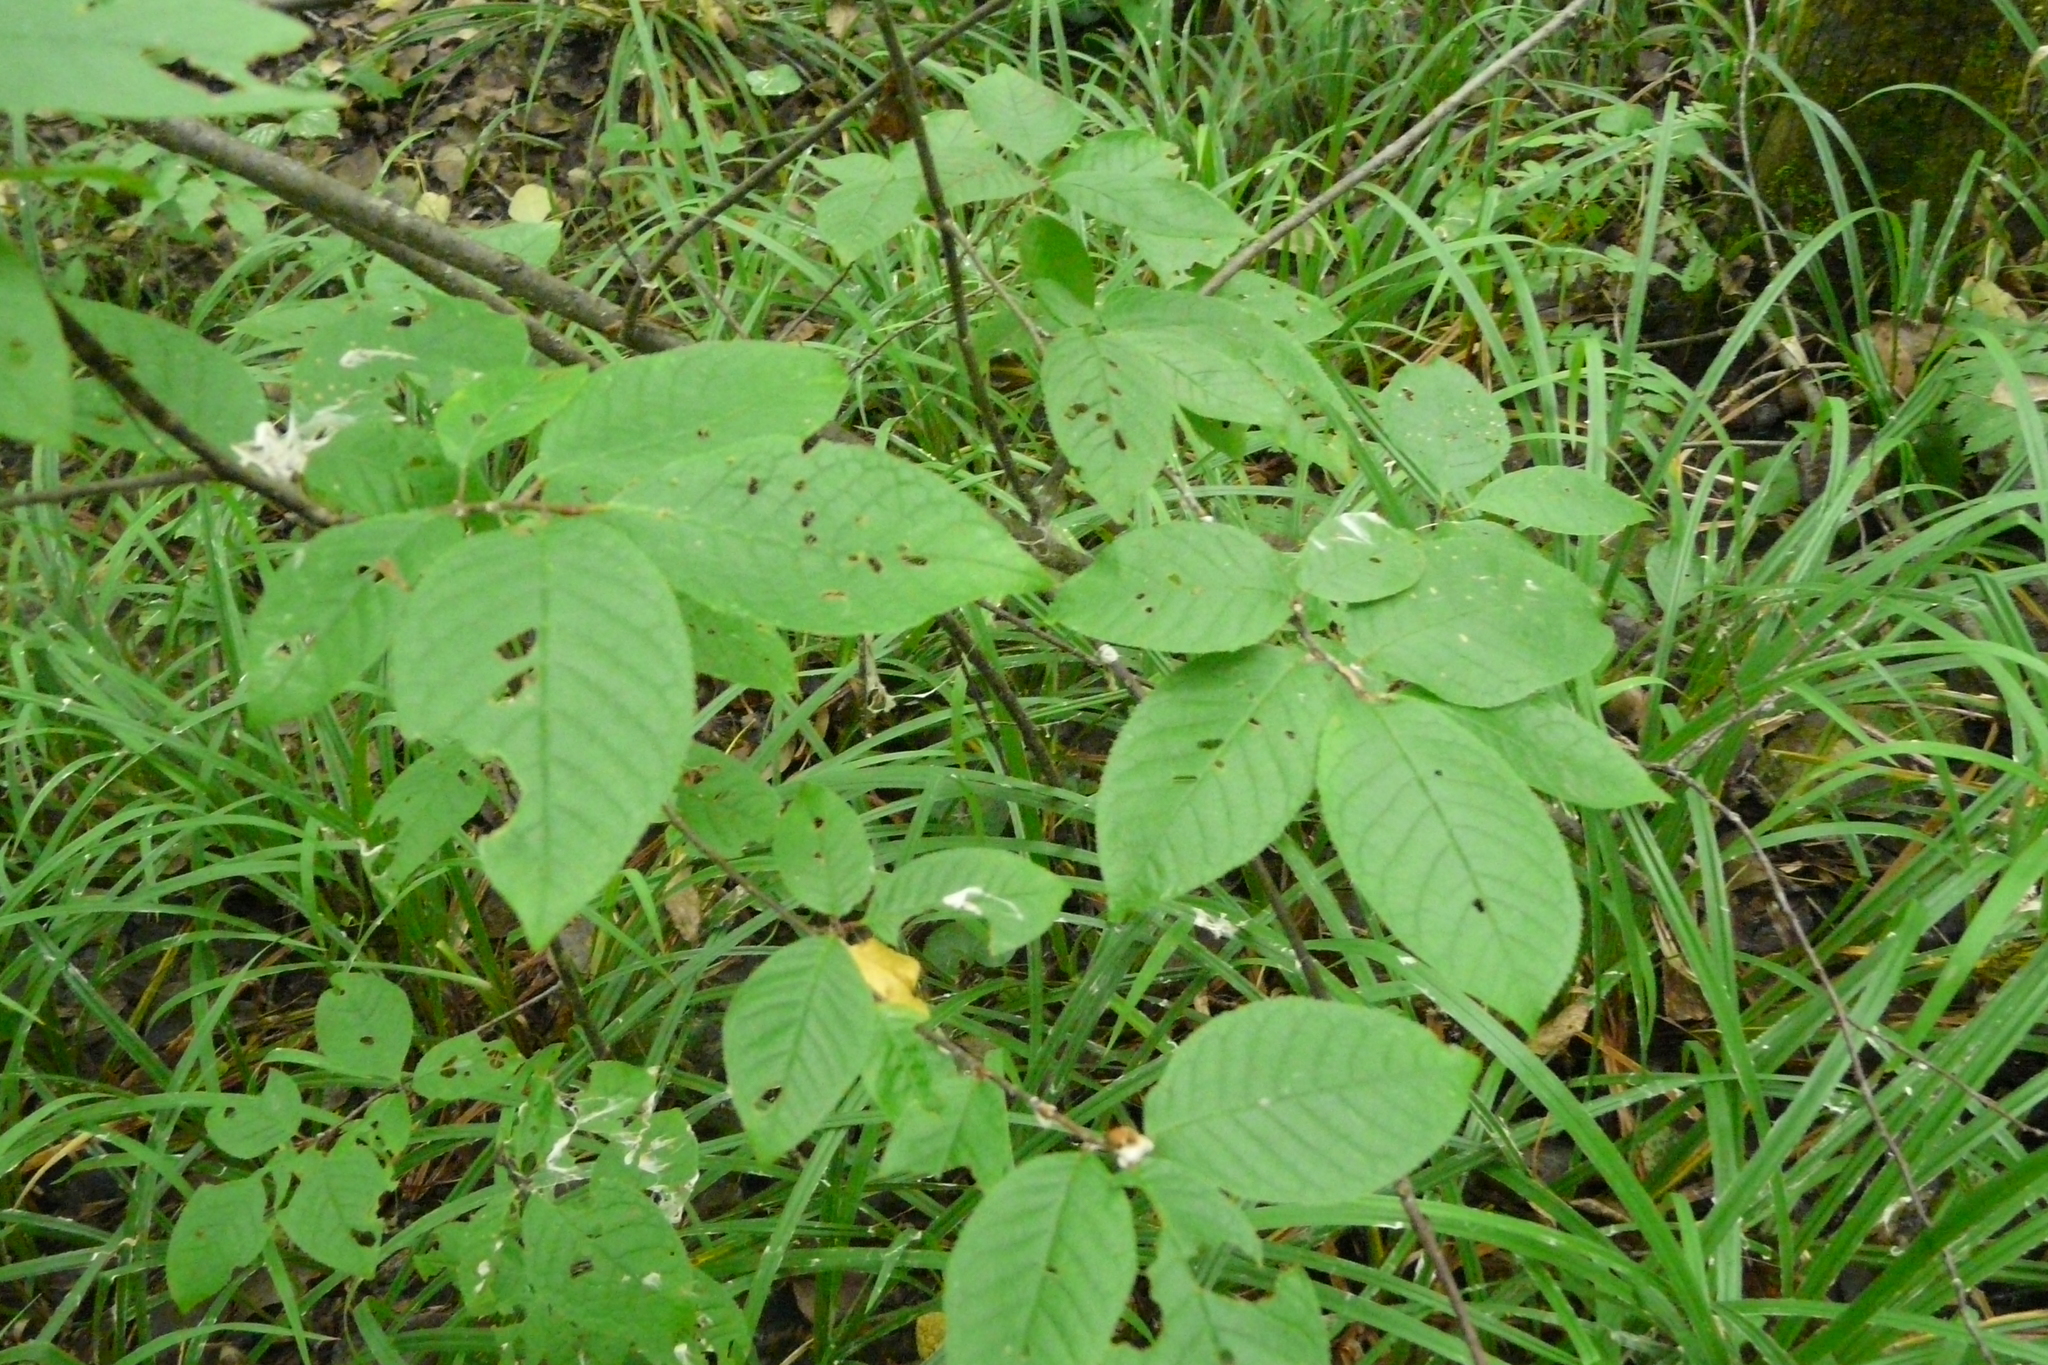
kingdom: Plantae
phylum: Tracheophyta
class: Magnoliopsida
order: Rosales
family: Rosaceae
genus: Prunus
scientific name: Prunus padus
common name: Bird cherry
